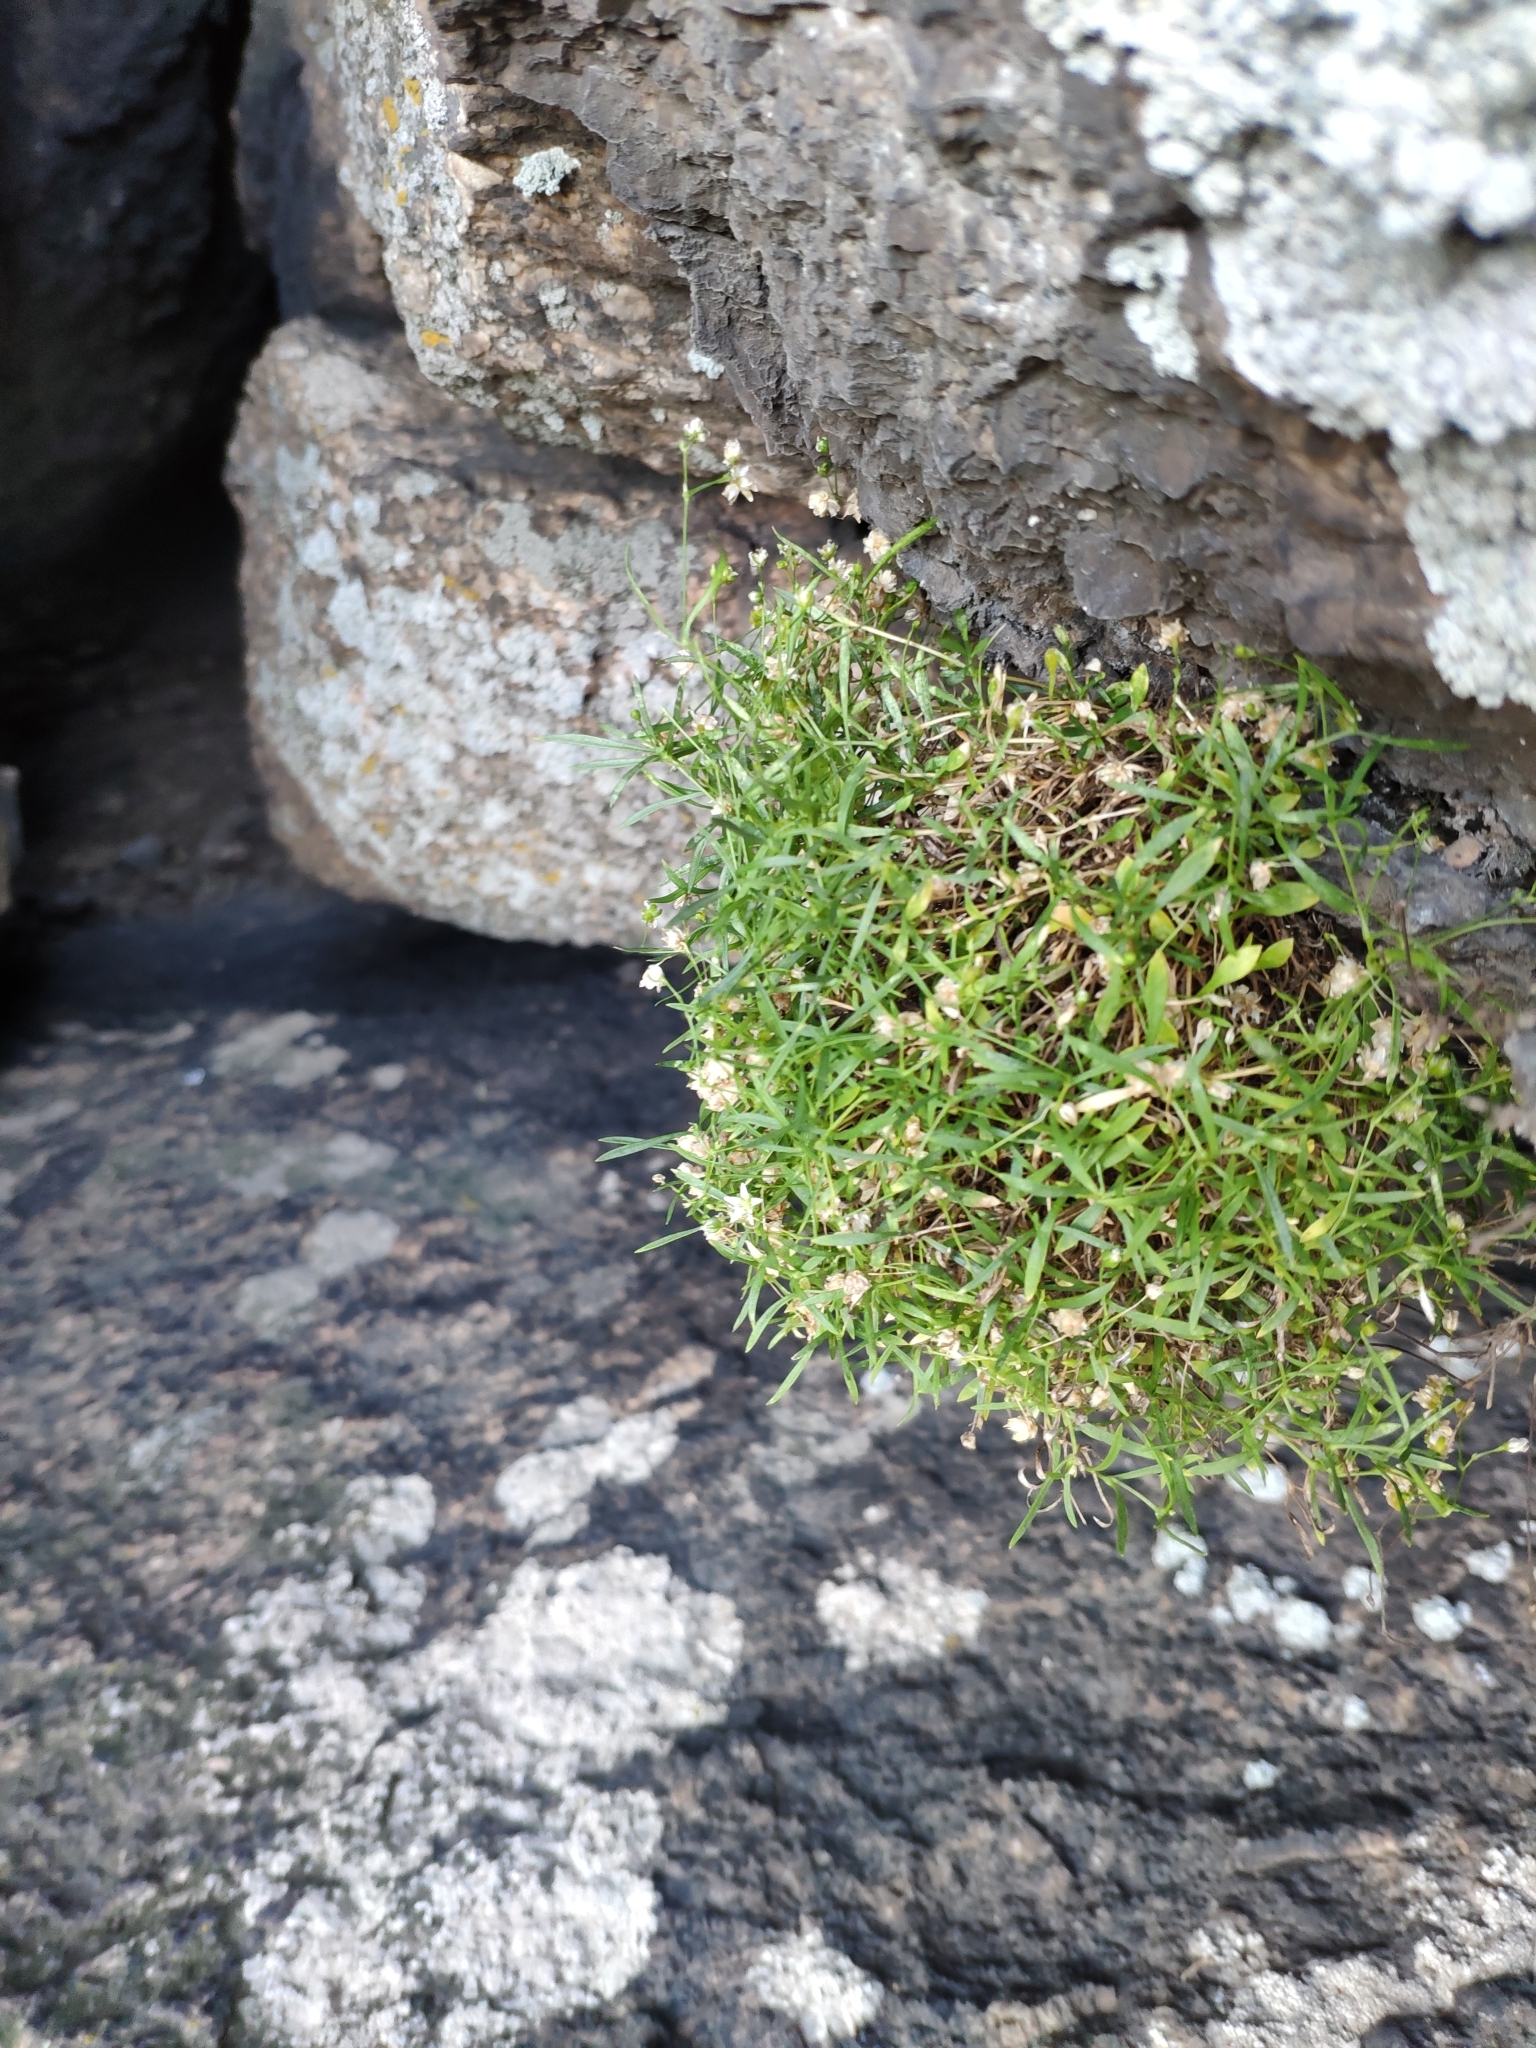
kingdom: Plantae
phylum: Tracheophyta
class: Magnoliopsida
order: Caryophyllales
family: Caryophyllaceae
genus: Moehringia
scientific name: Moehringia hypanica
